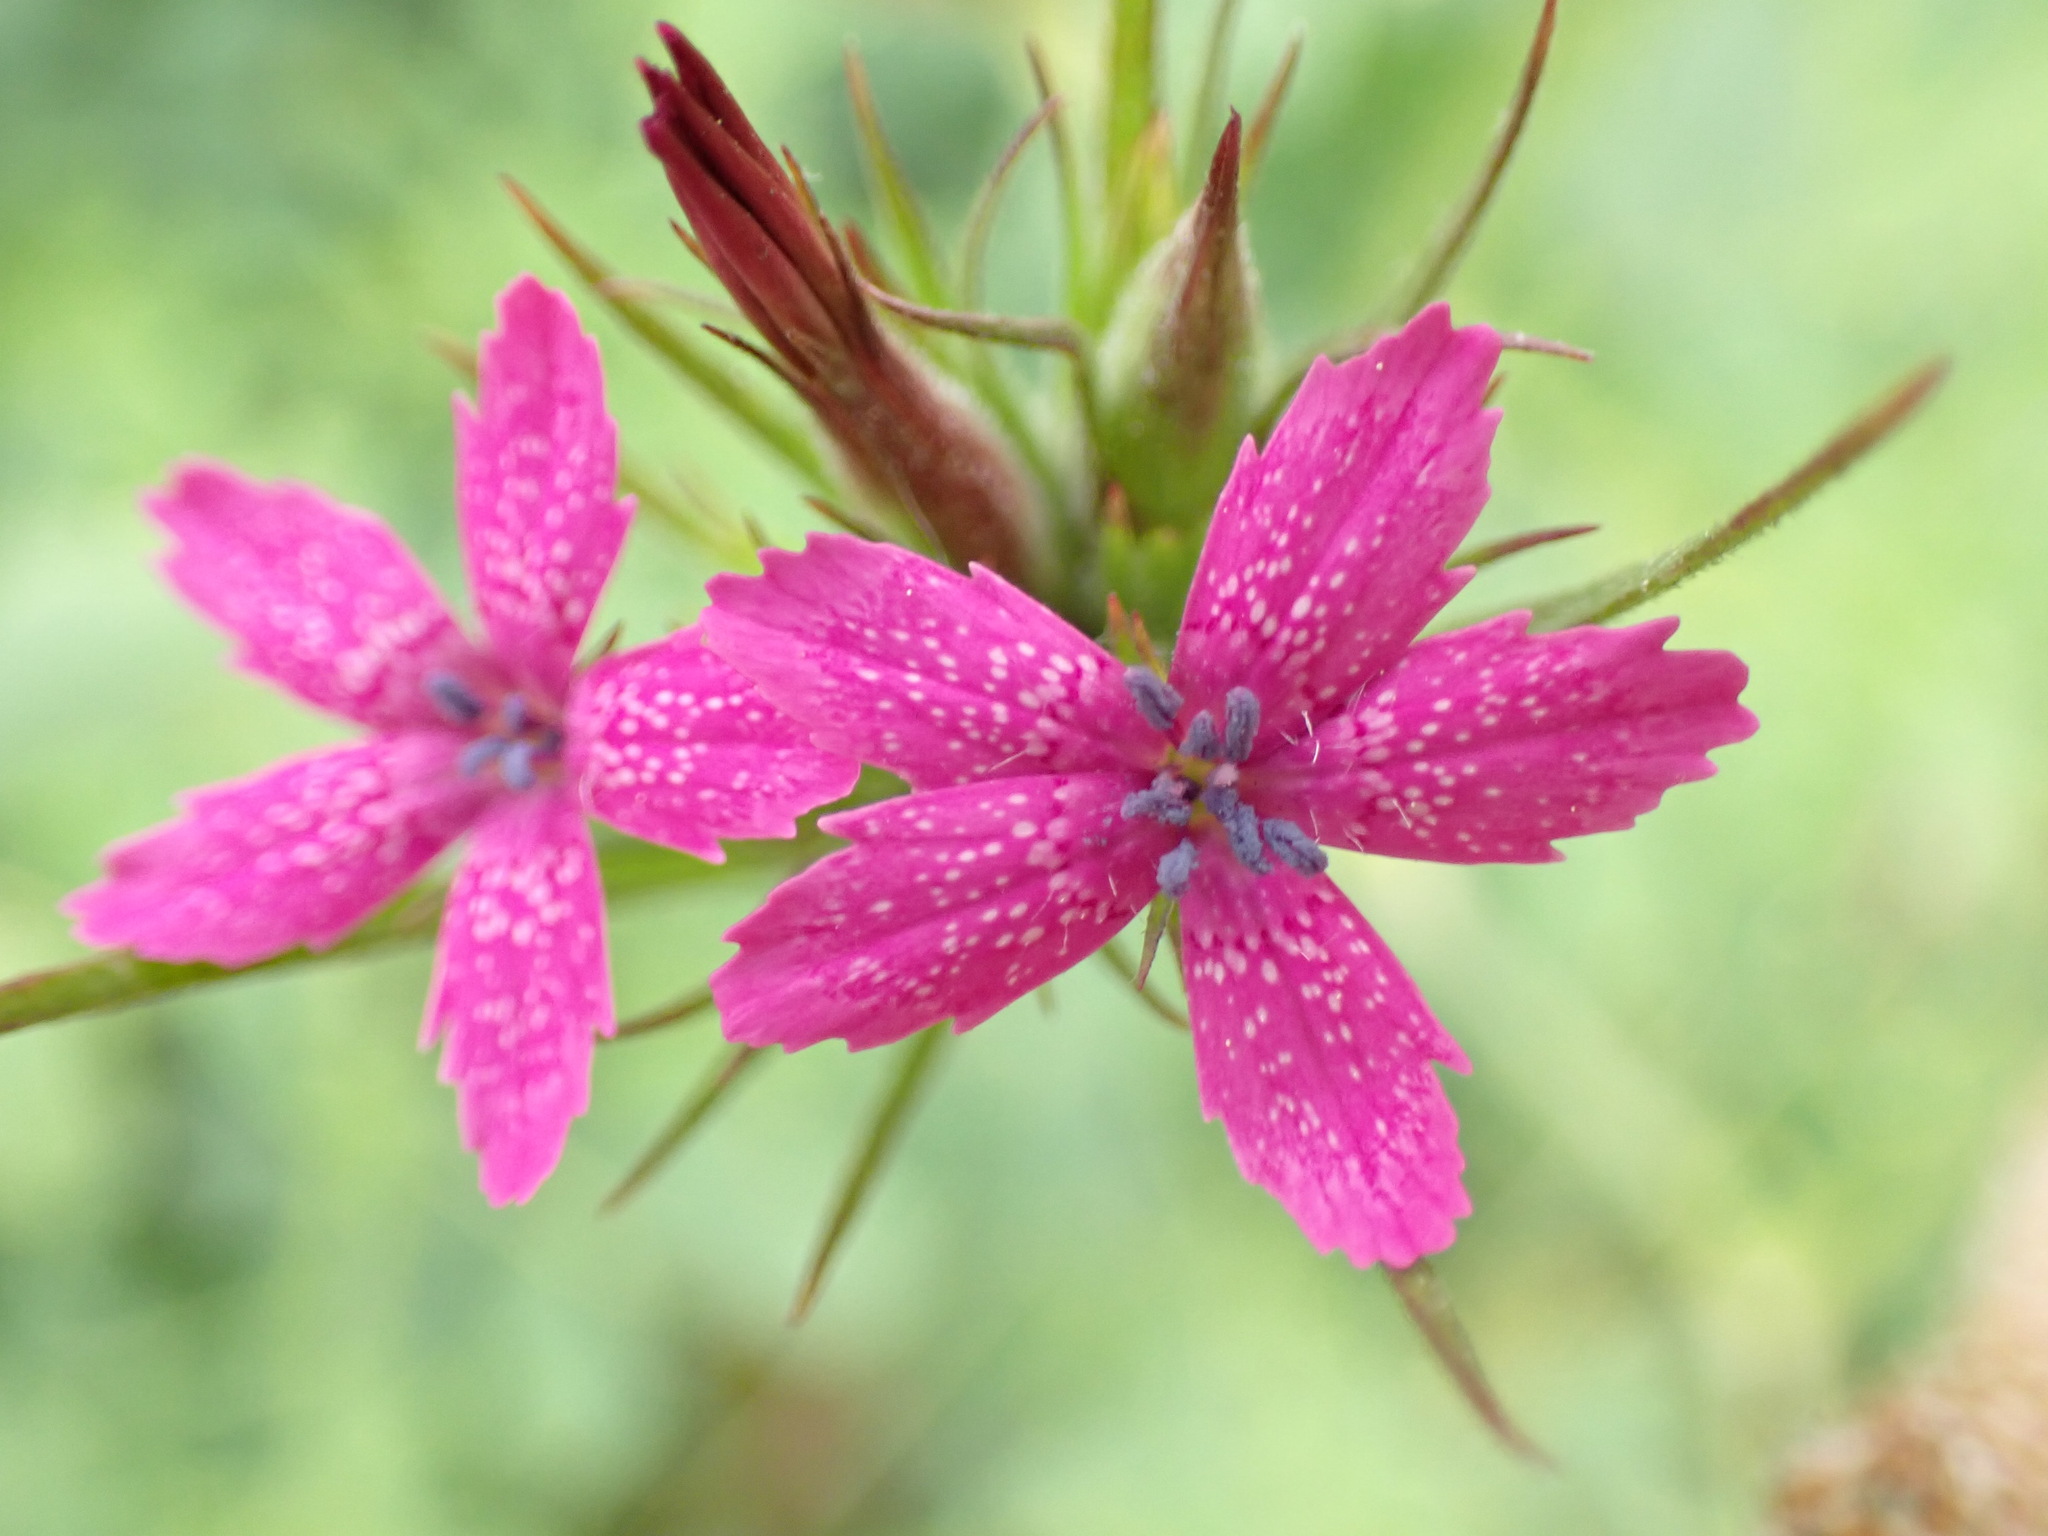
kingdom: Plantae
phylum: Tracheophyta
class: Magnoliopsida
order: Caryophyllales
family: Caryophyllaceae
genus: Dianthus
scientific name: Dianthus armeria
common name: Deptford pink
